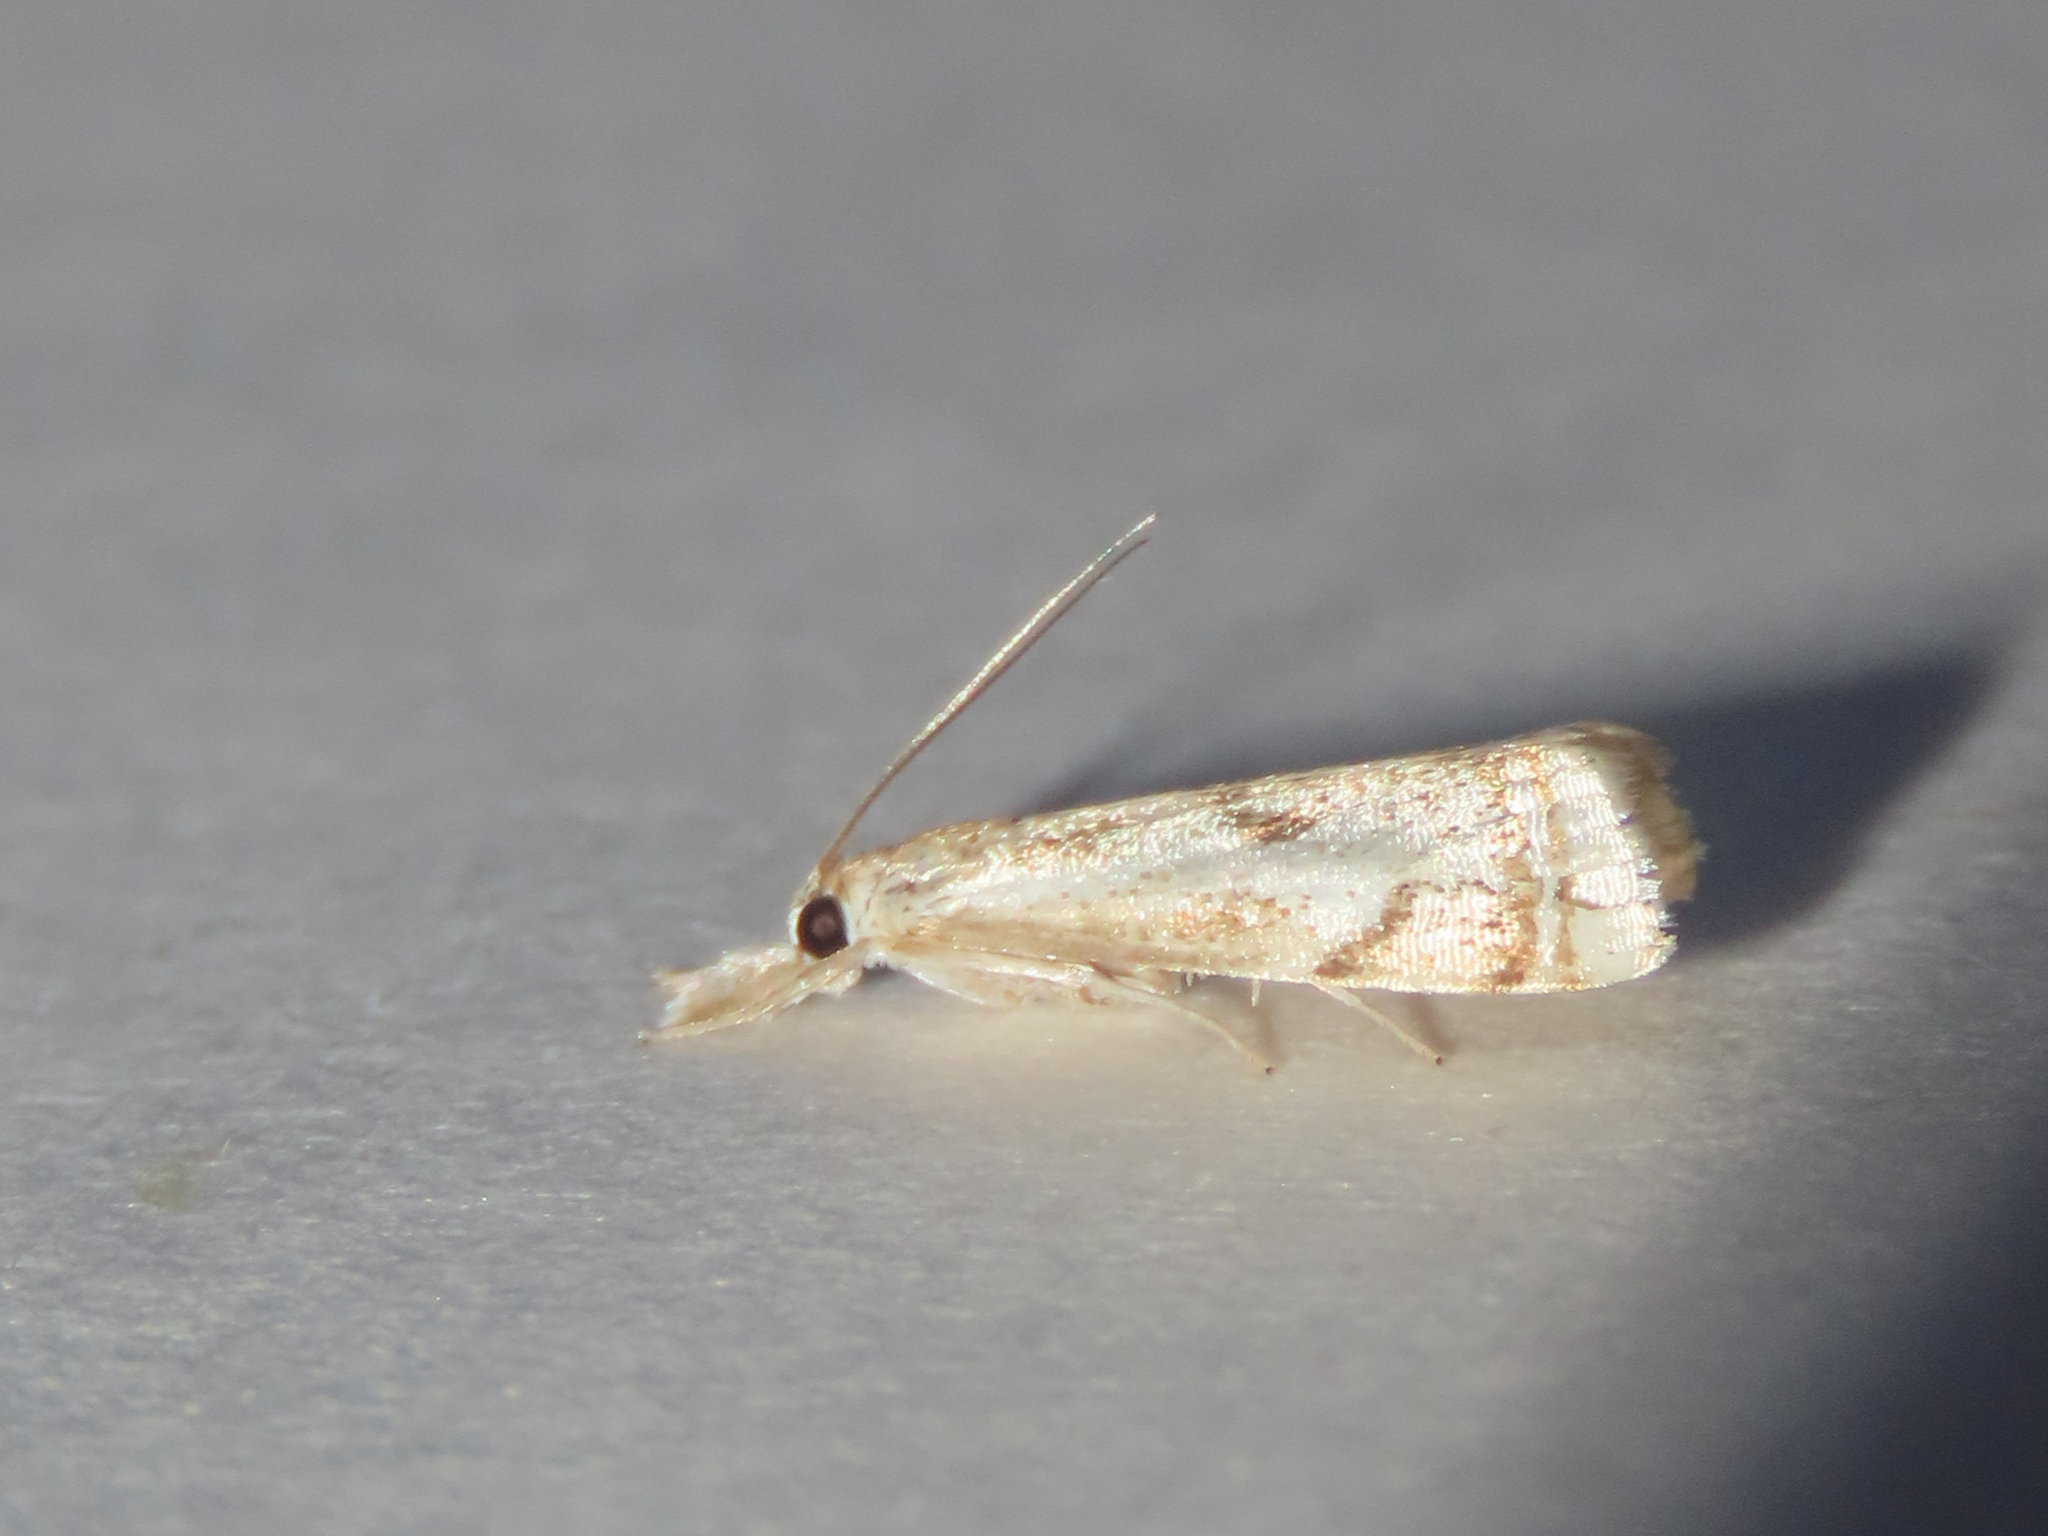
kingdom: Animalia
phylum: Arthropoda
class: Insecta
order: Lepidoptera
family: Crambidae
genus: Microcrambus
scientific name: Microcrambus elegans
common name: Elegant grass-veneer
